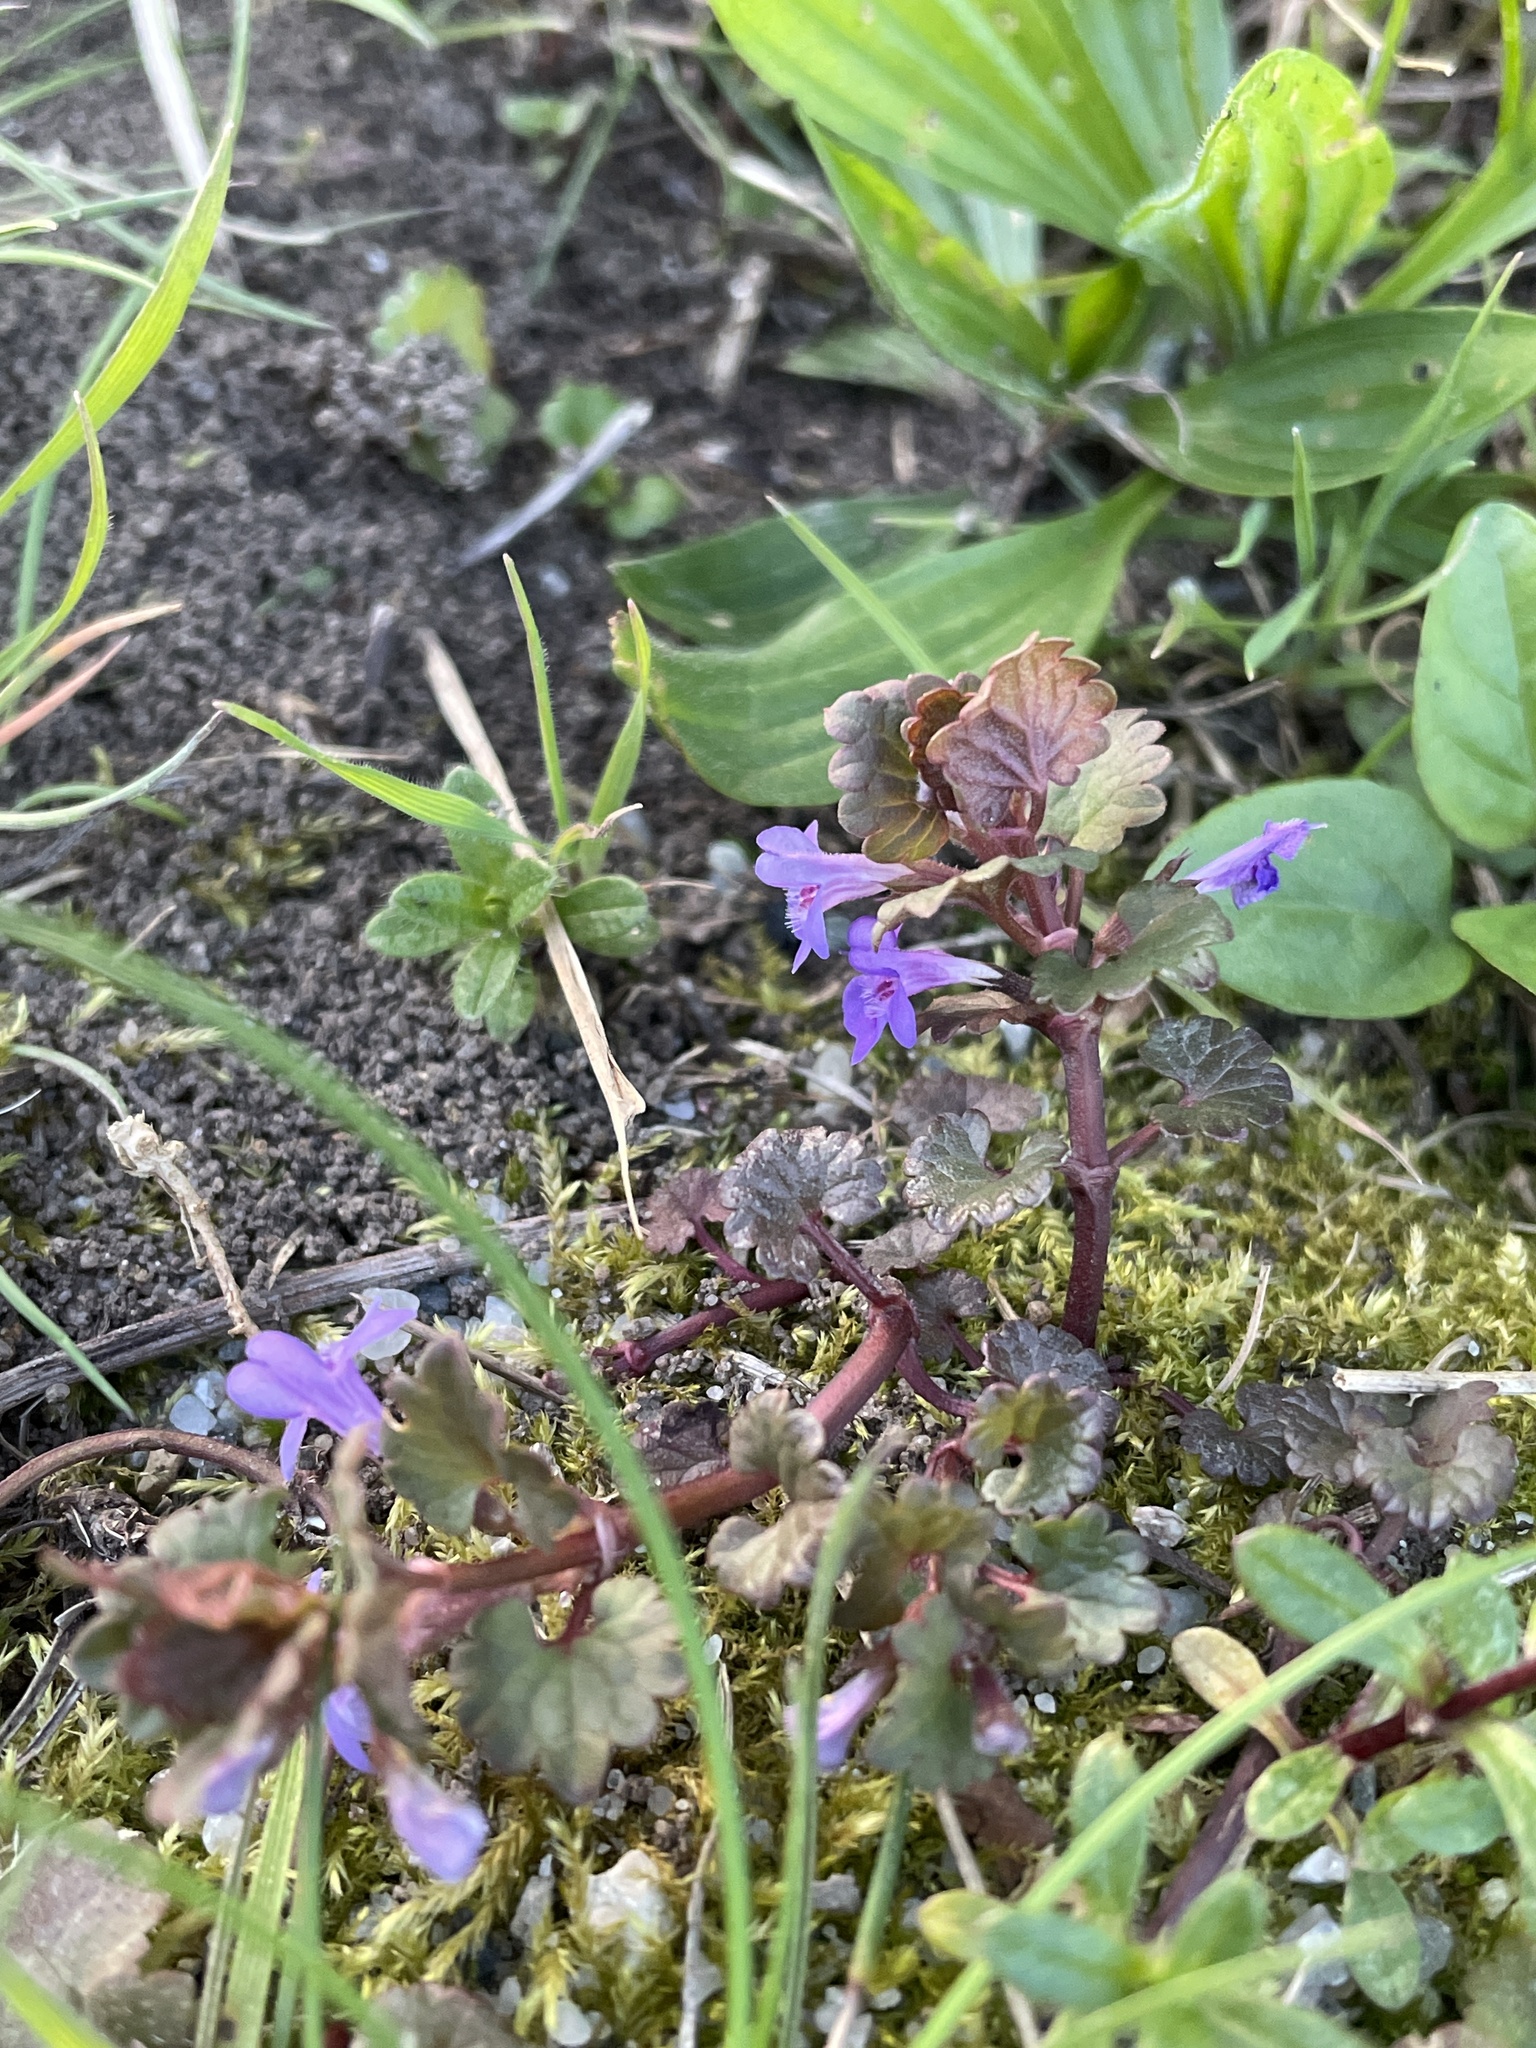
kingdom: Plantae
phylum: Tracheophyta
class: Magnoliopsida
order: Lamiales
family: Lamiaceae
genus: Glechoma
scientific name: Glechoma hederacea
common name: Ground ivy
